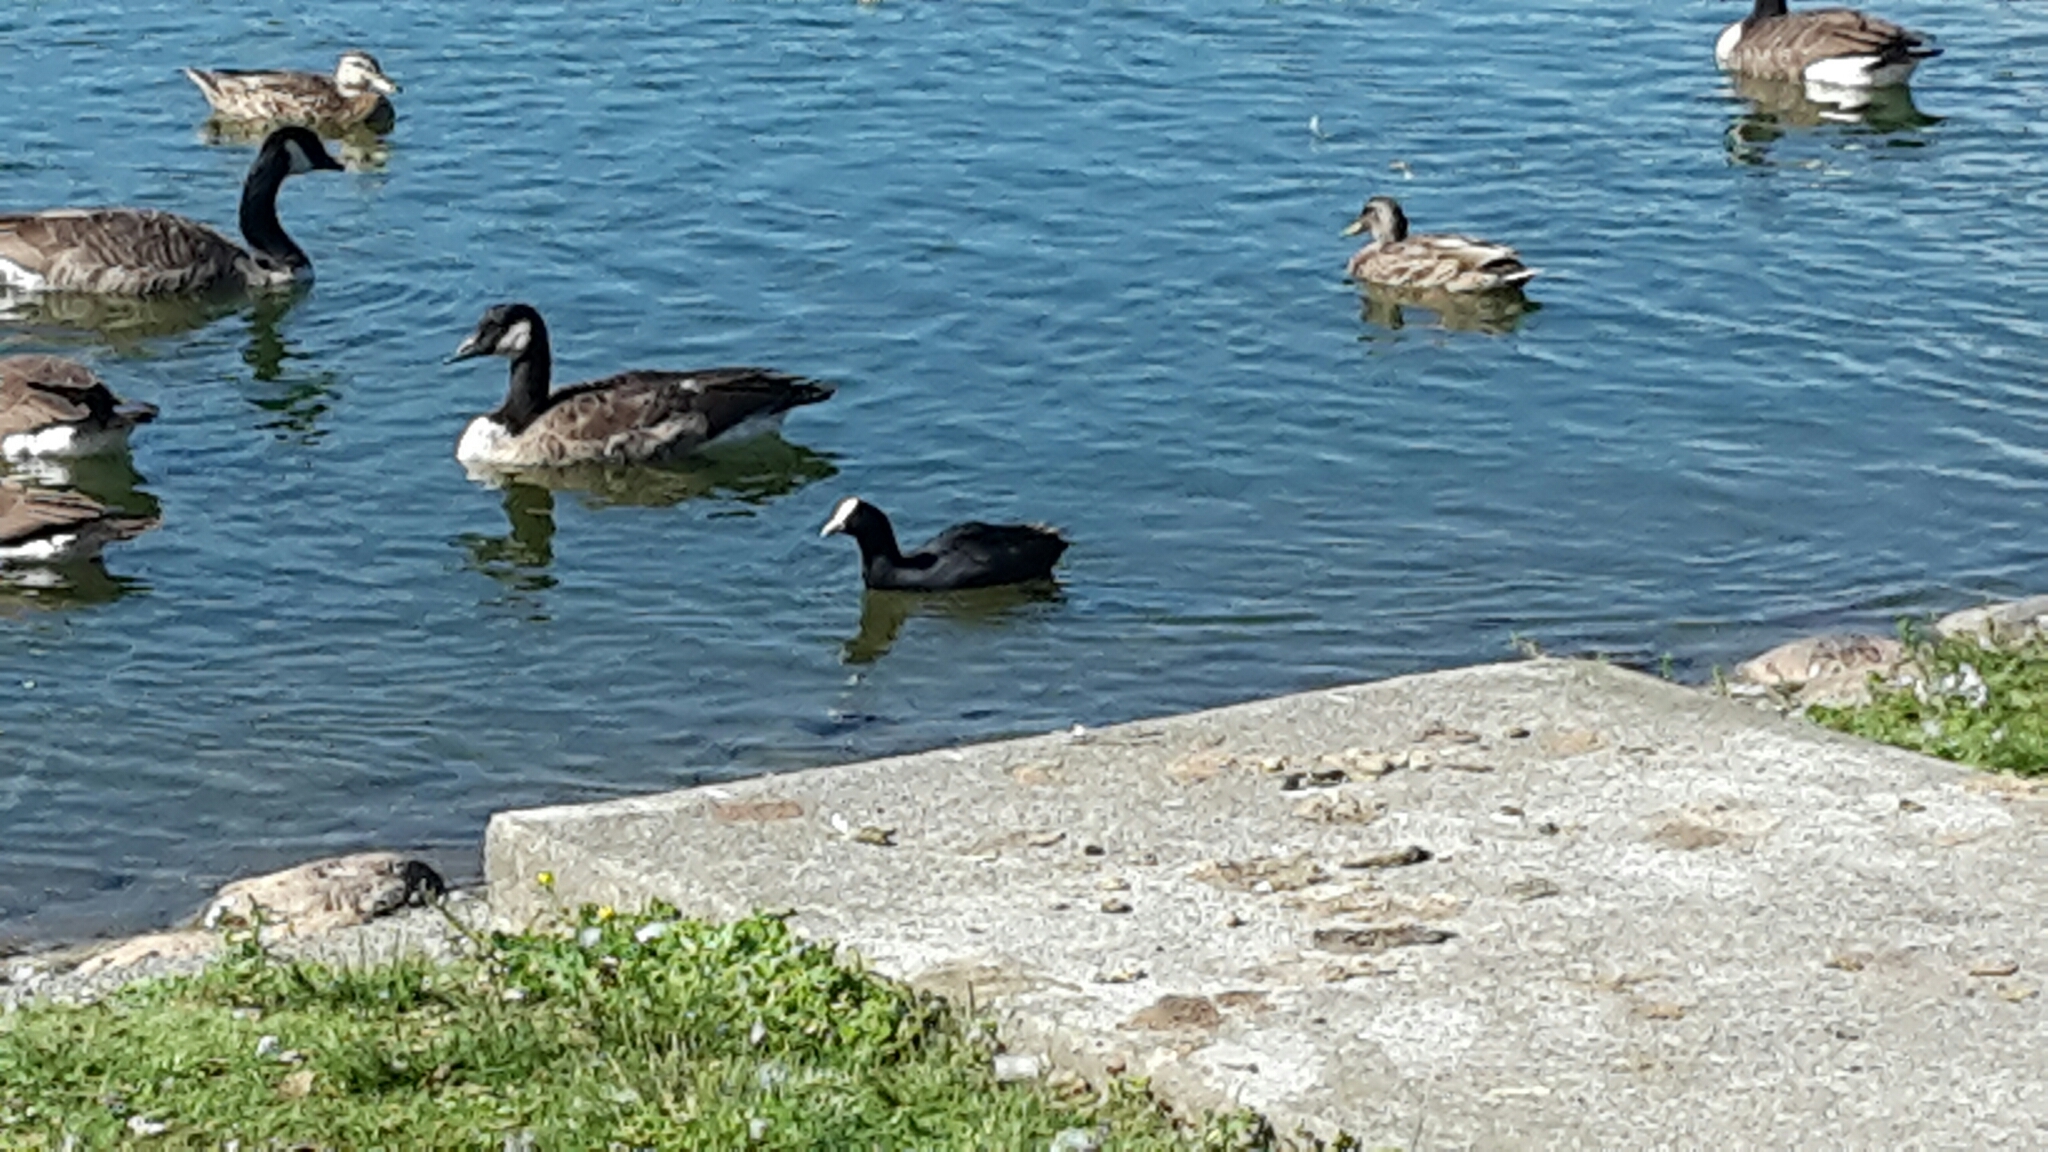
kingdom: Animalia
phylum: Chordata
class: Aves
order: Gruiformes
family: Rallidae
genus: Fulica
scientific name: Fulica atra
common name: Eurasian coot
